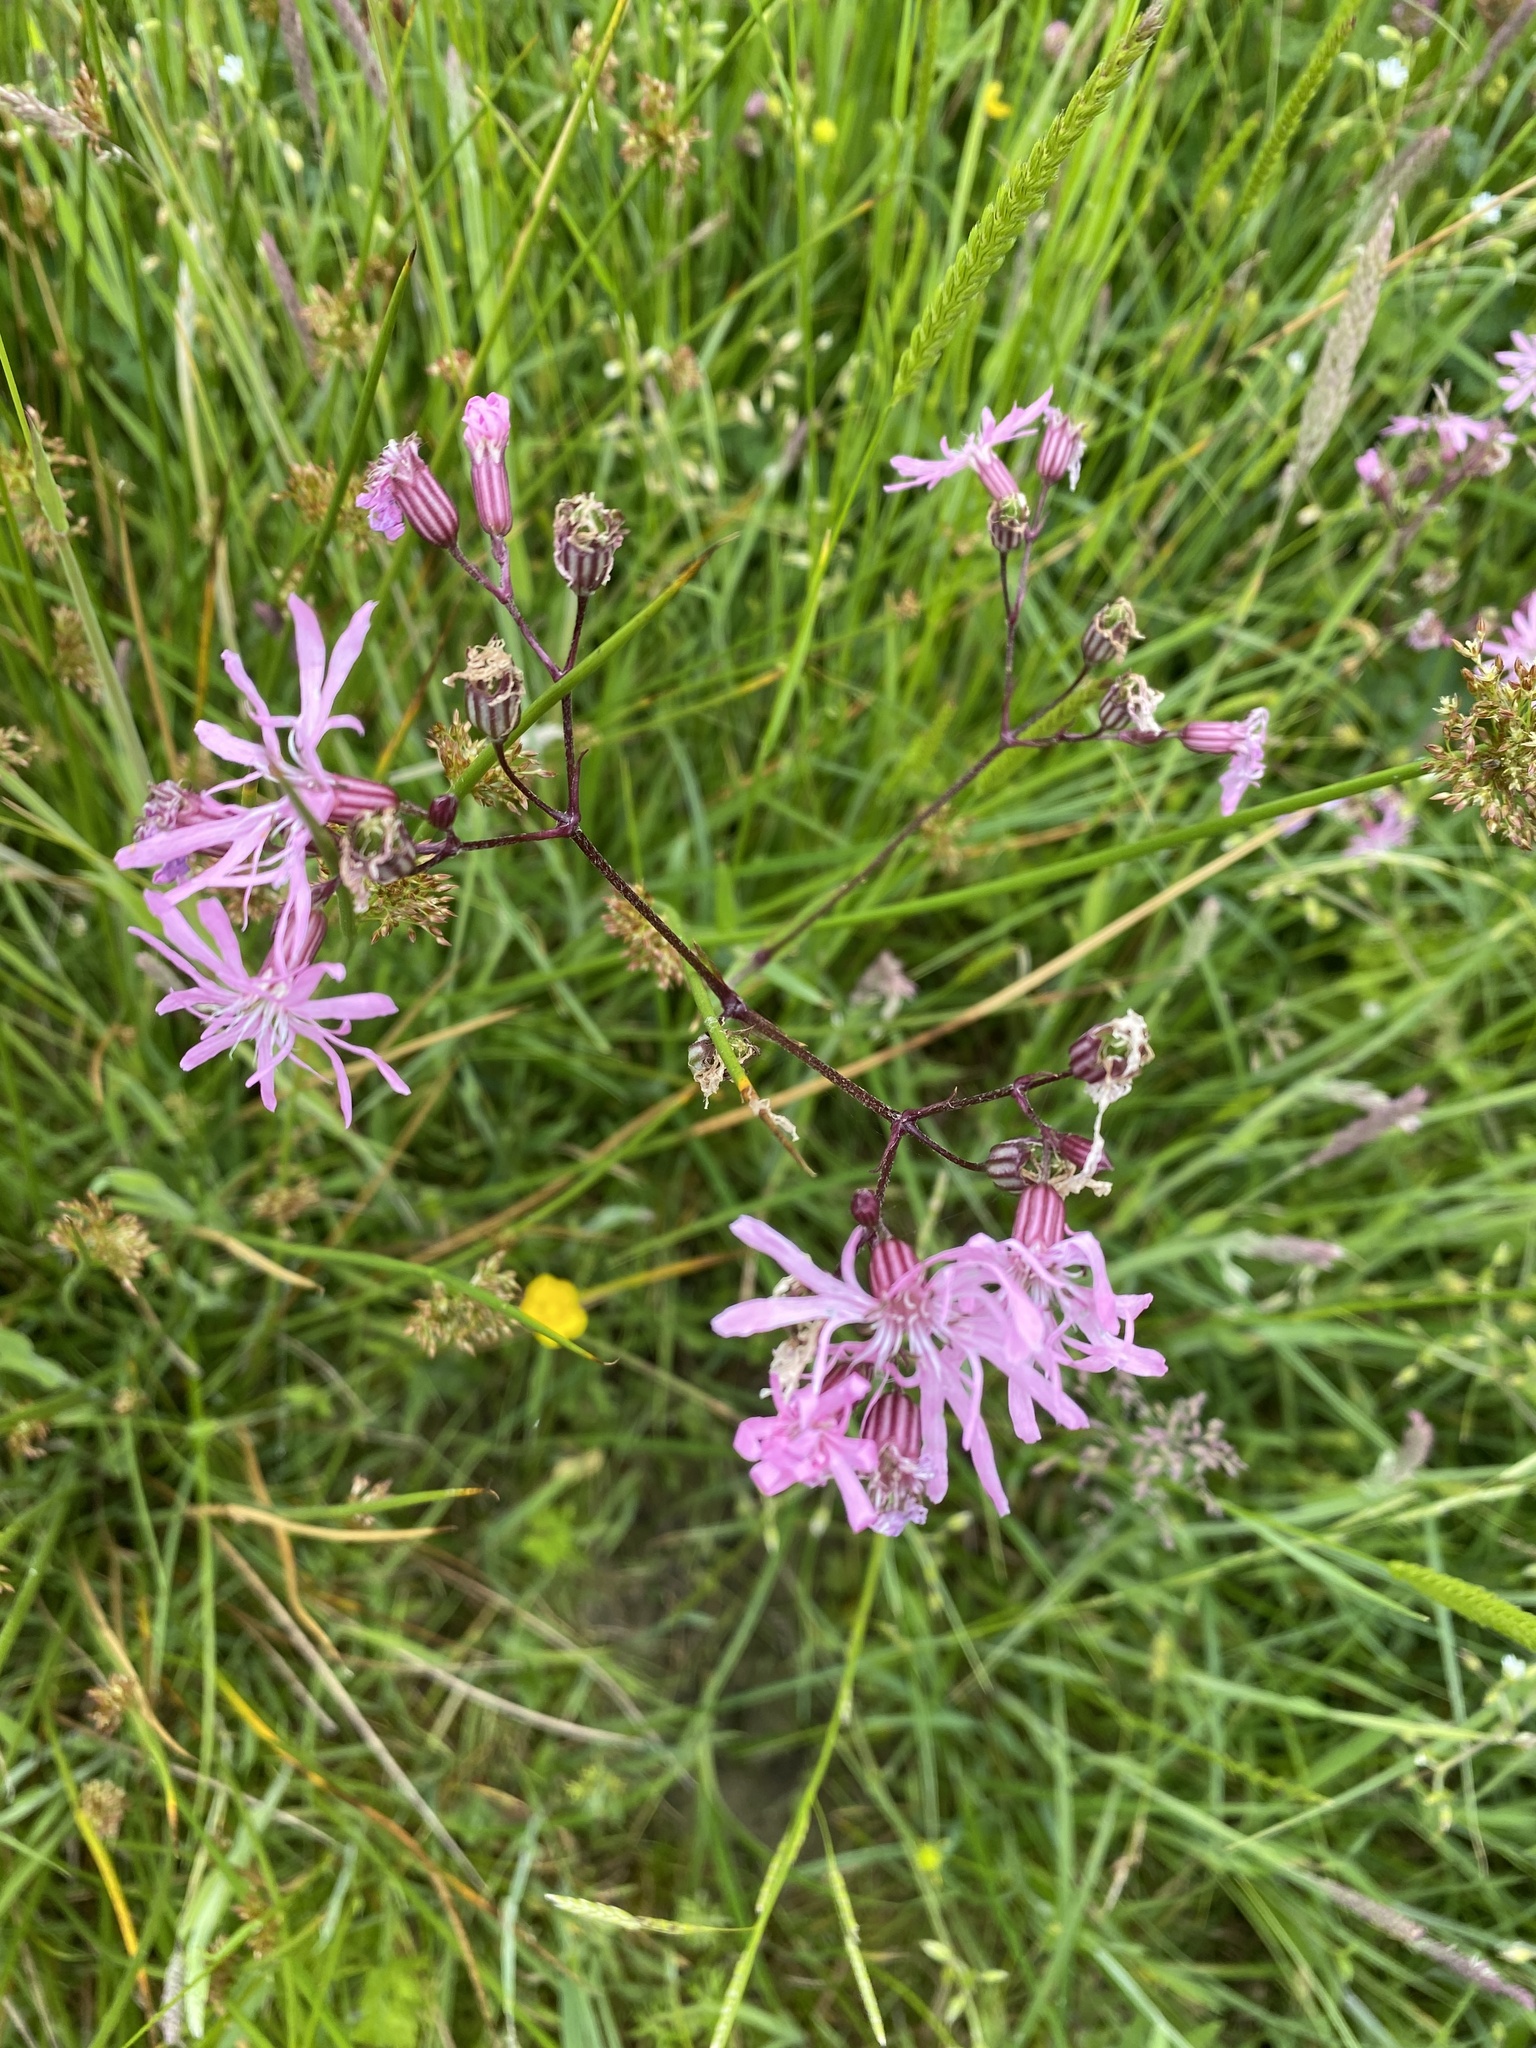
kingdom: Plantae
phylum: Tracheophyta
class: Magnoliopsida
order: Caryophyllales
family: Caryophyllaceae
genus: Silene
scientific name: Silene flos-cuculi
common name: Ragged-robin
